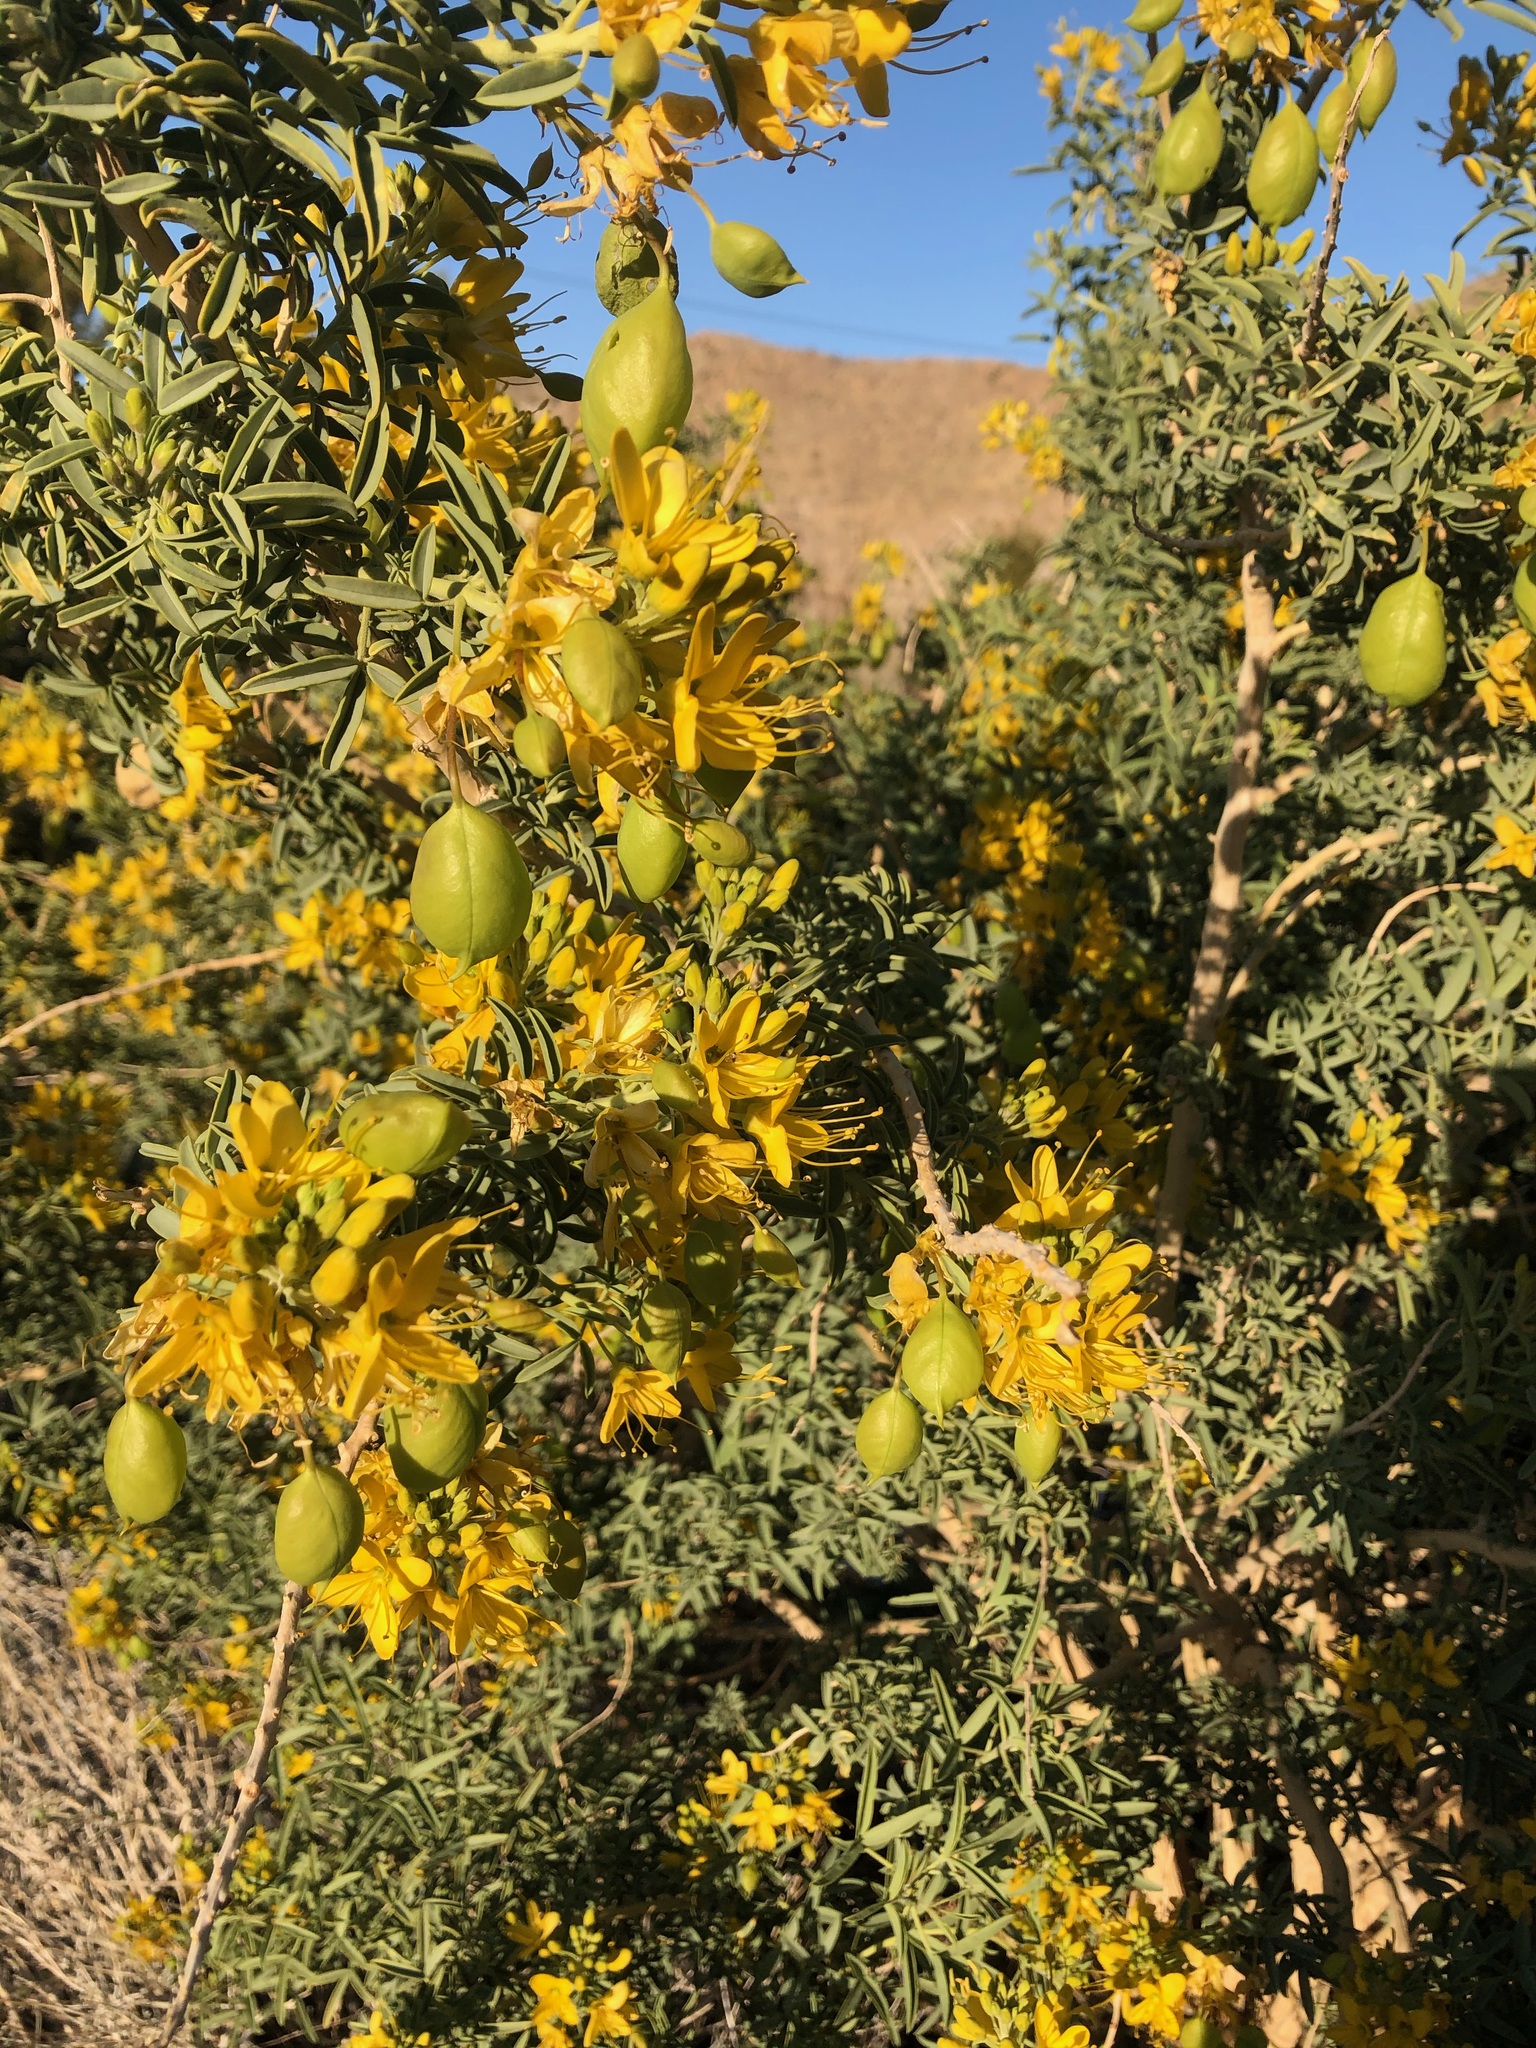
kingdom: Plantae
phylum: Tracheophyta
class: Magnoliopsida
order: Brassicales
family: Cleomaceae
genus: Cleomella
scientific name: Cleomella arborea
